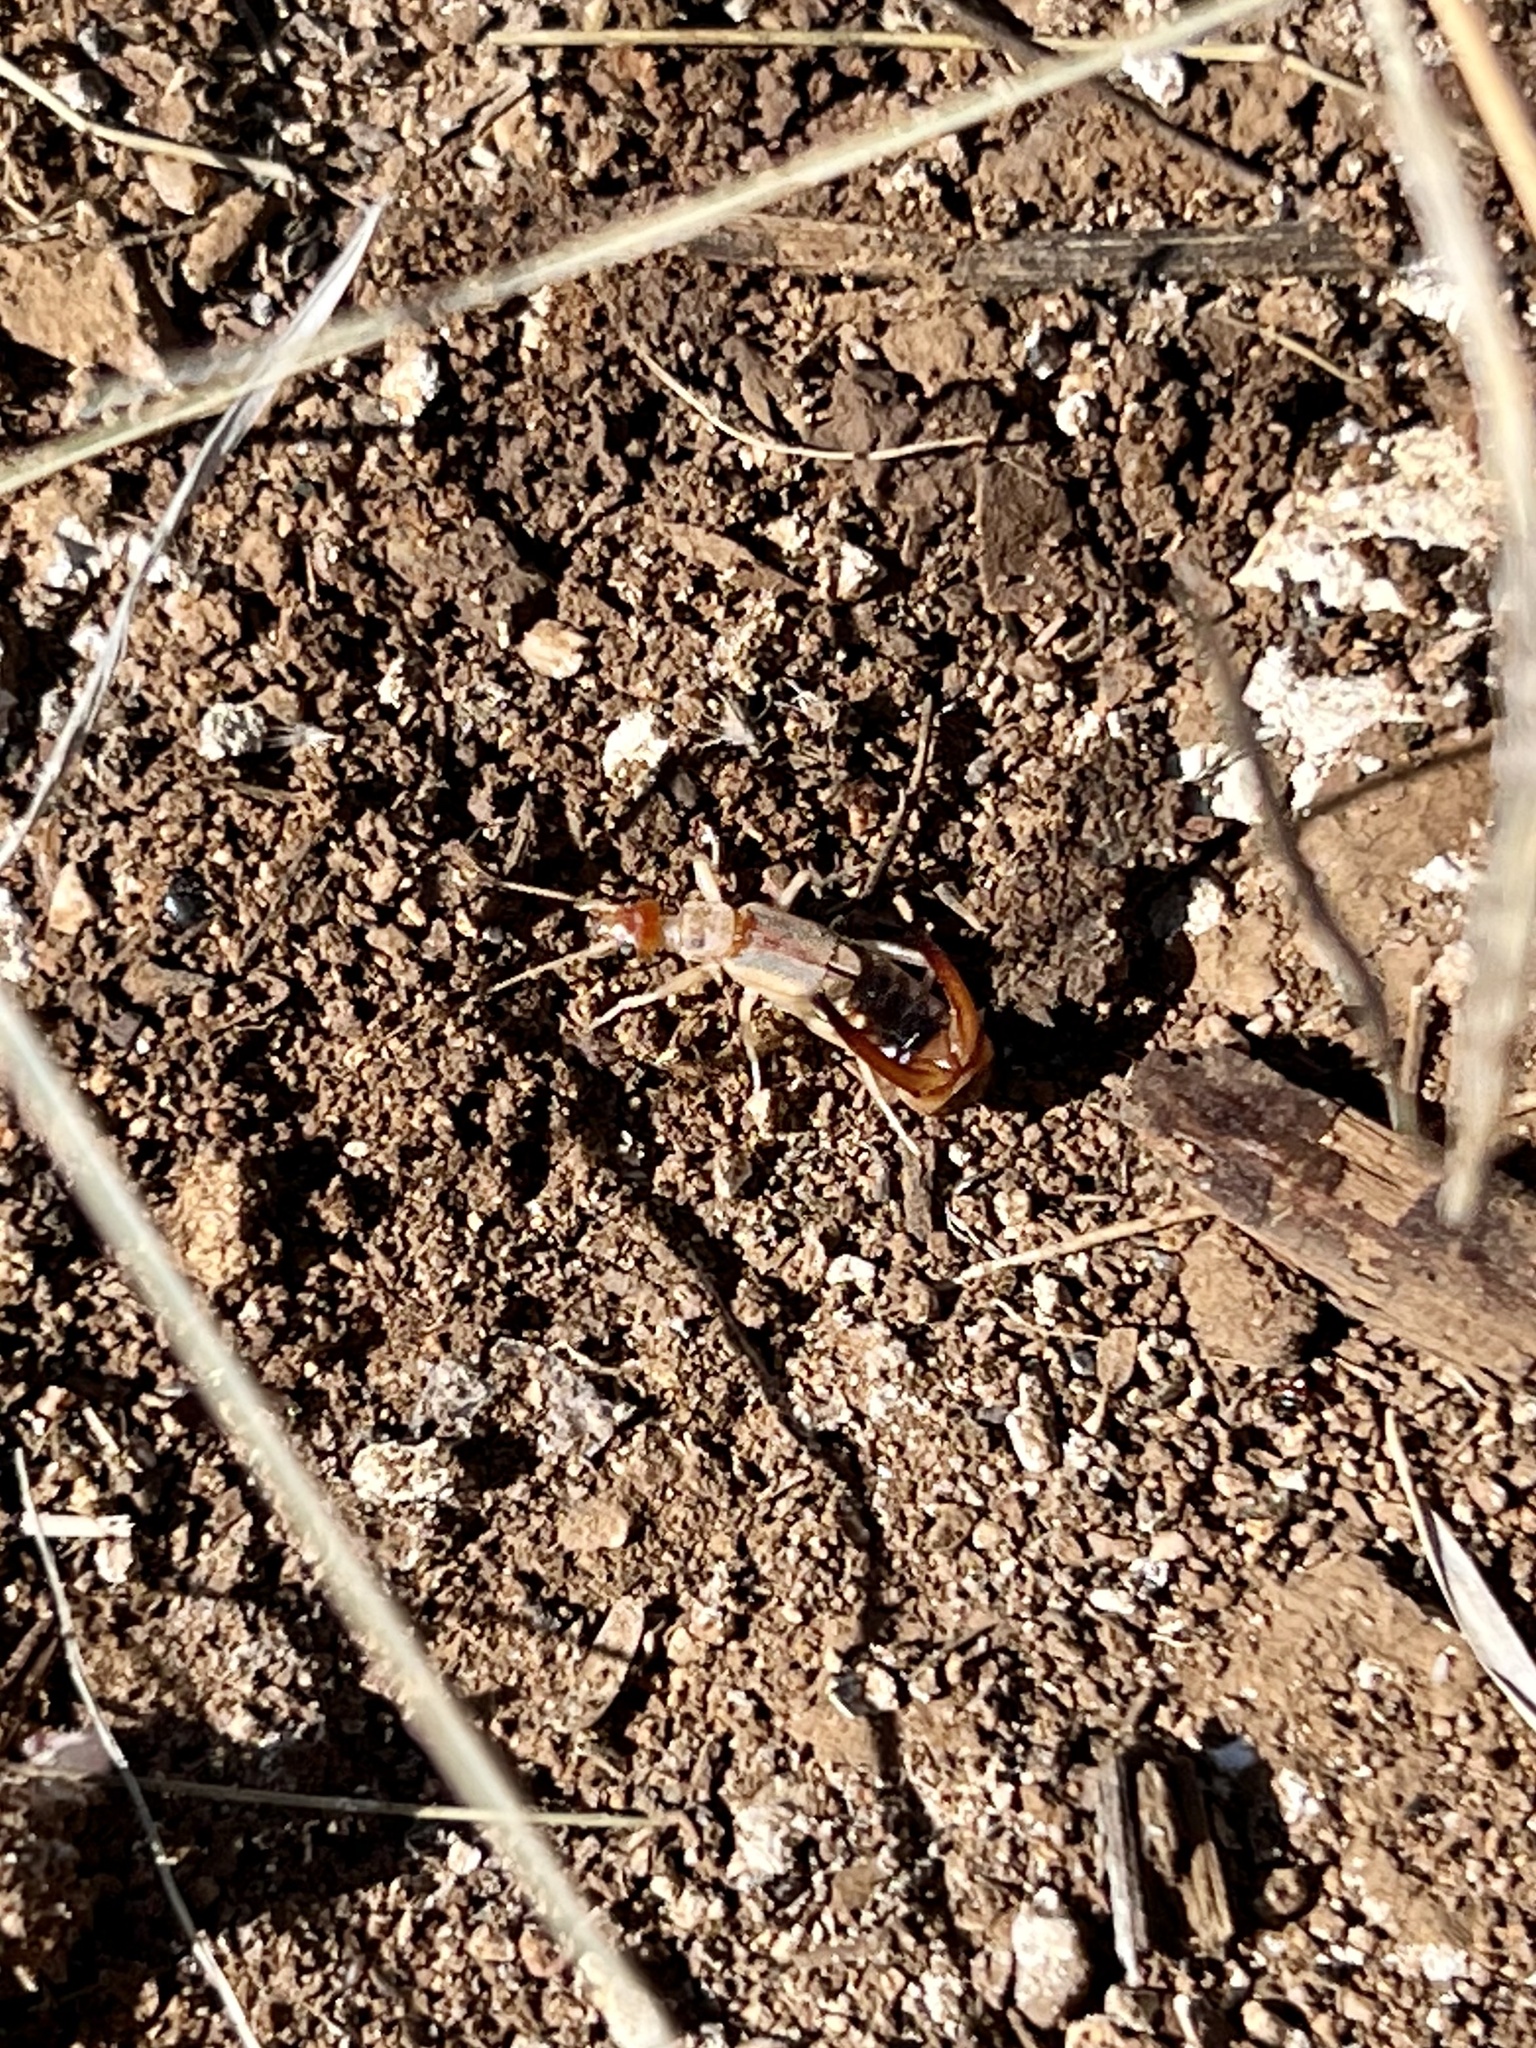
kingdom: Animalia
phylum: Arthropoda
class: Insecta
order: Dermaptera
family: Labiduridae
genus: Labidura
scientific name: Labidura riparia
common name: Striped earwig
